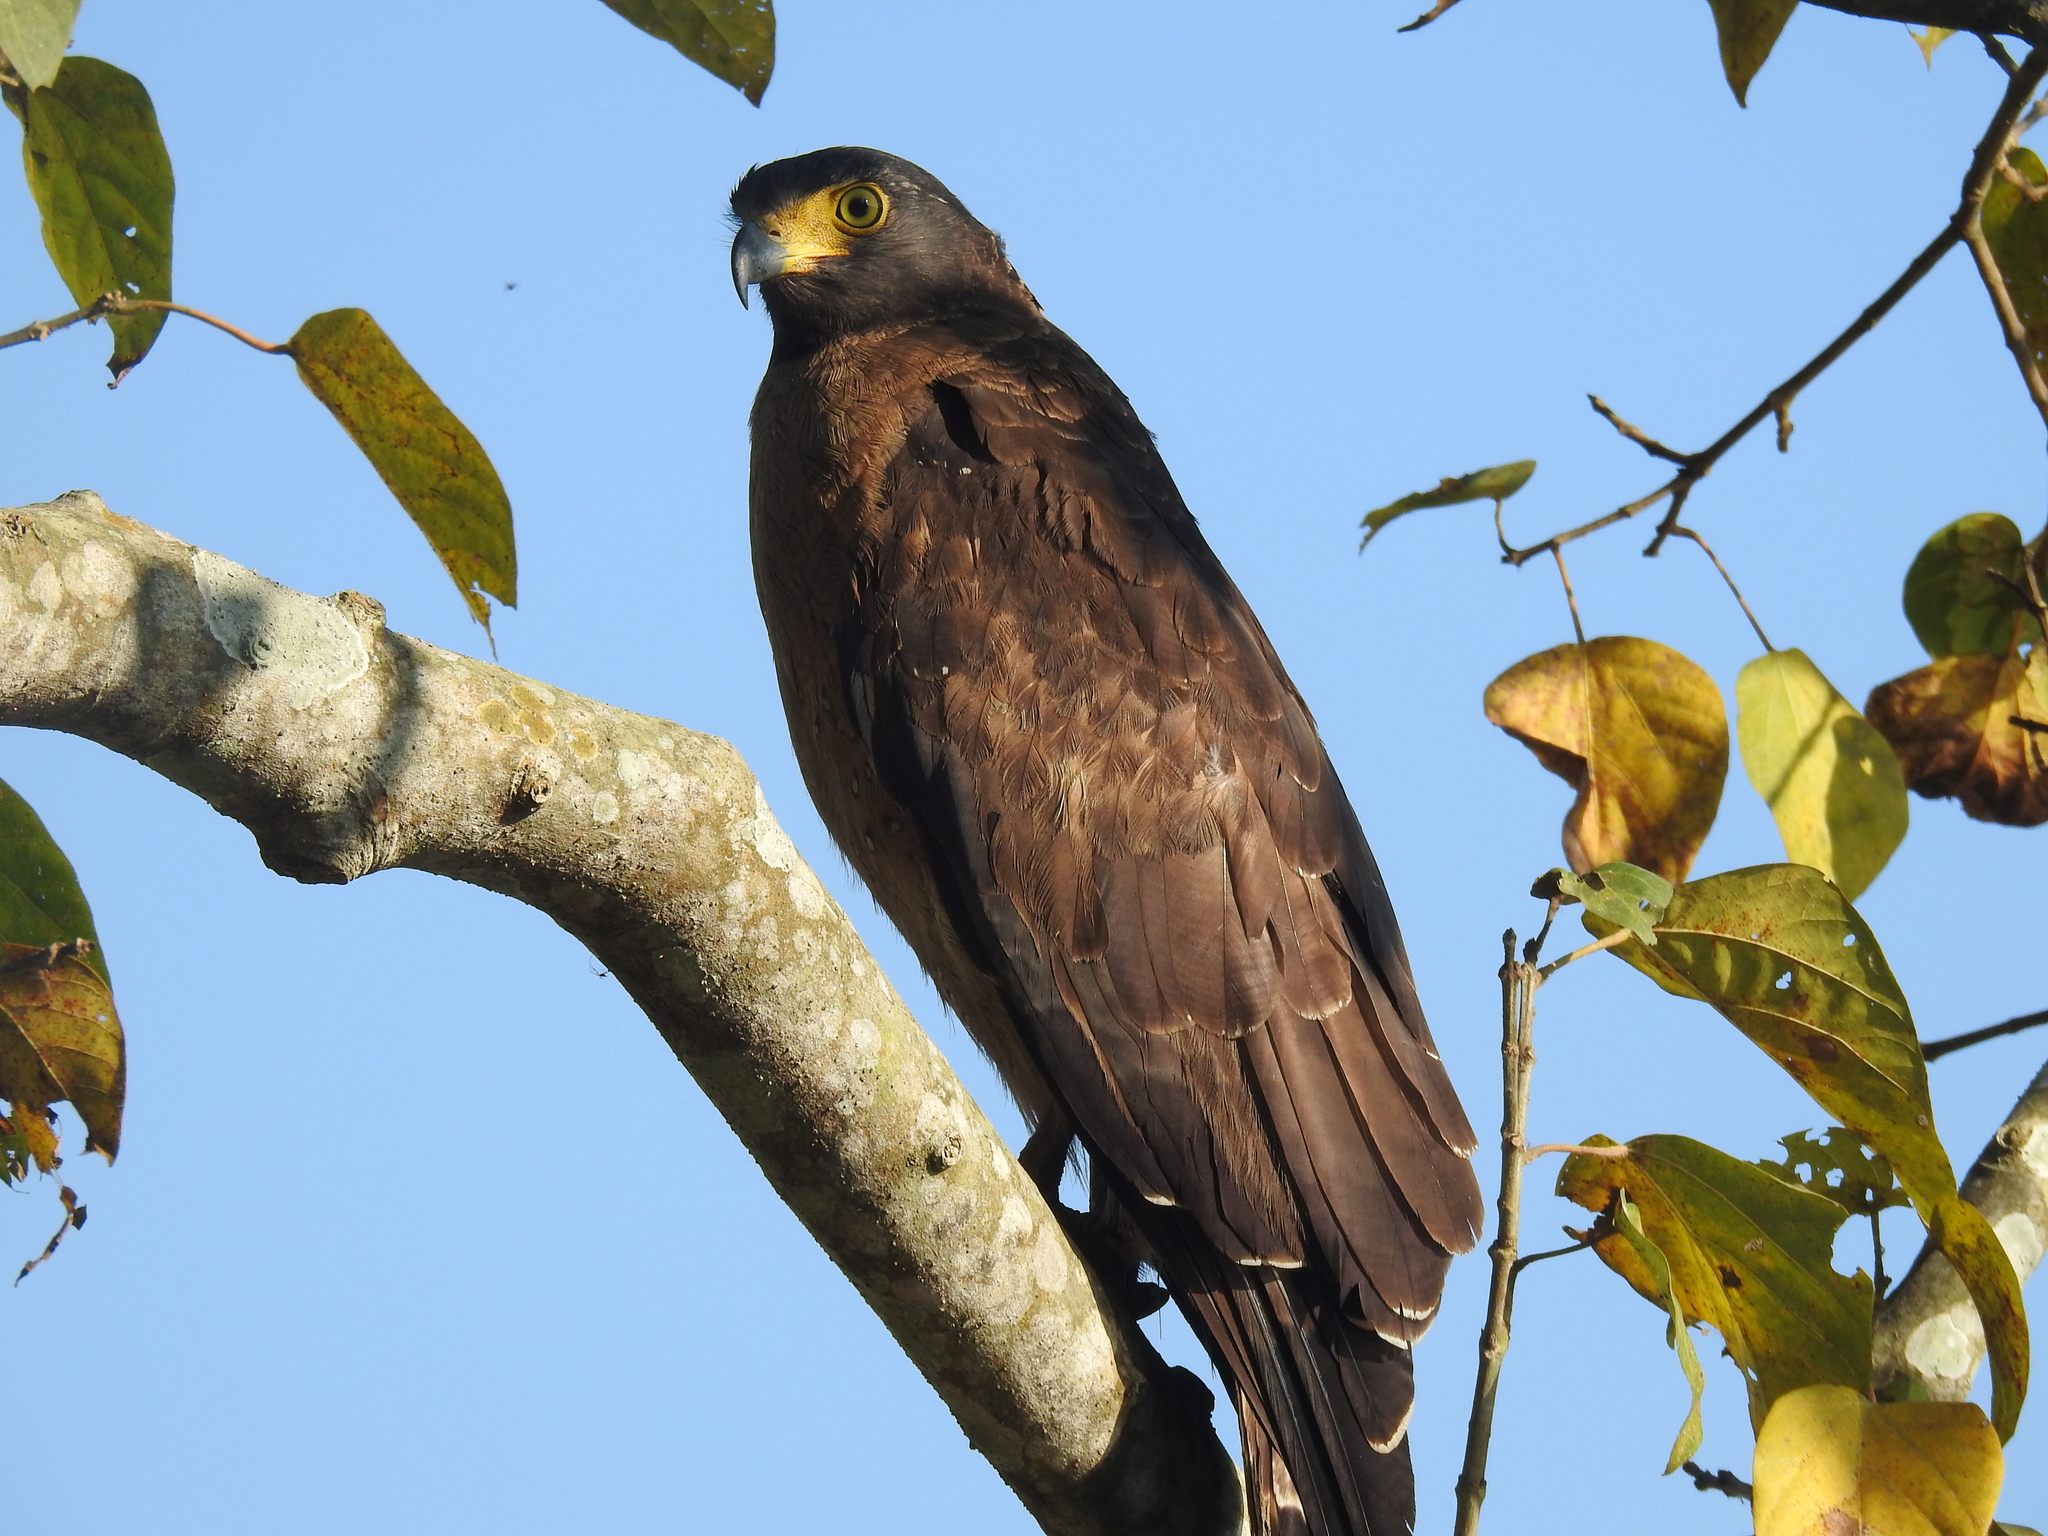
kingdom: Animalia
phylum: Chordata
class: Aves
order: Accipitriformes
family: Accipitridae
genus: Spilornis
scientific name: Spilornis cheela
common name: Crested serpent eagle
